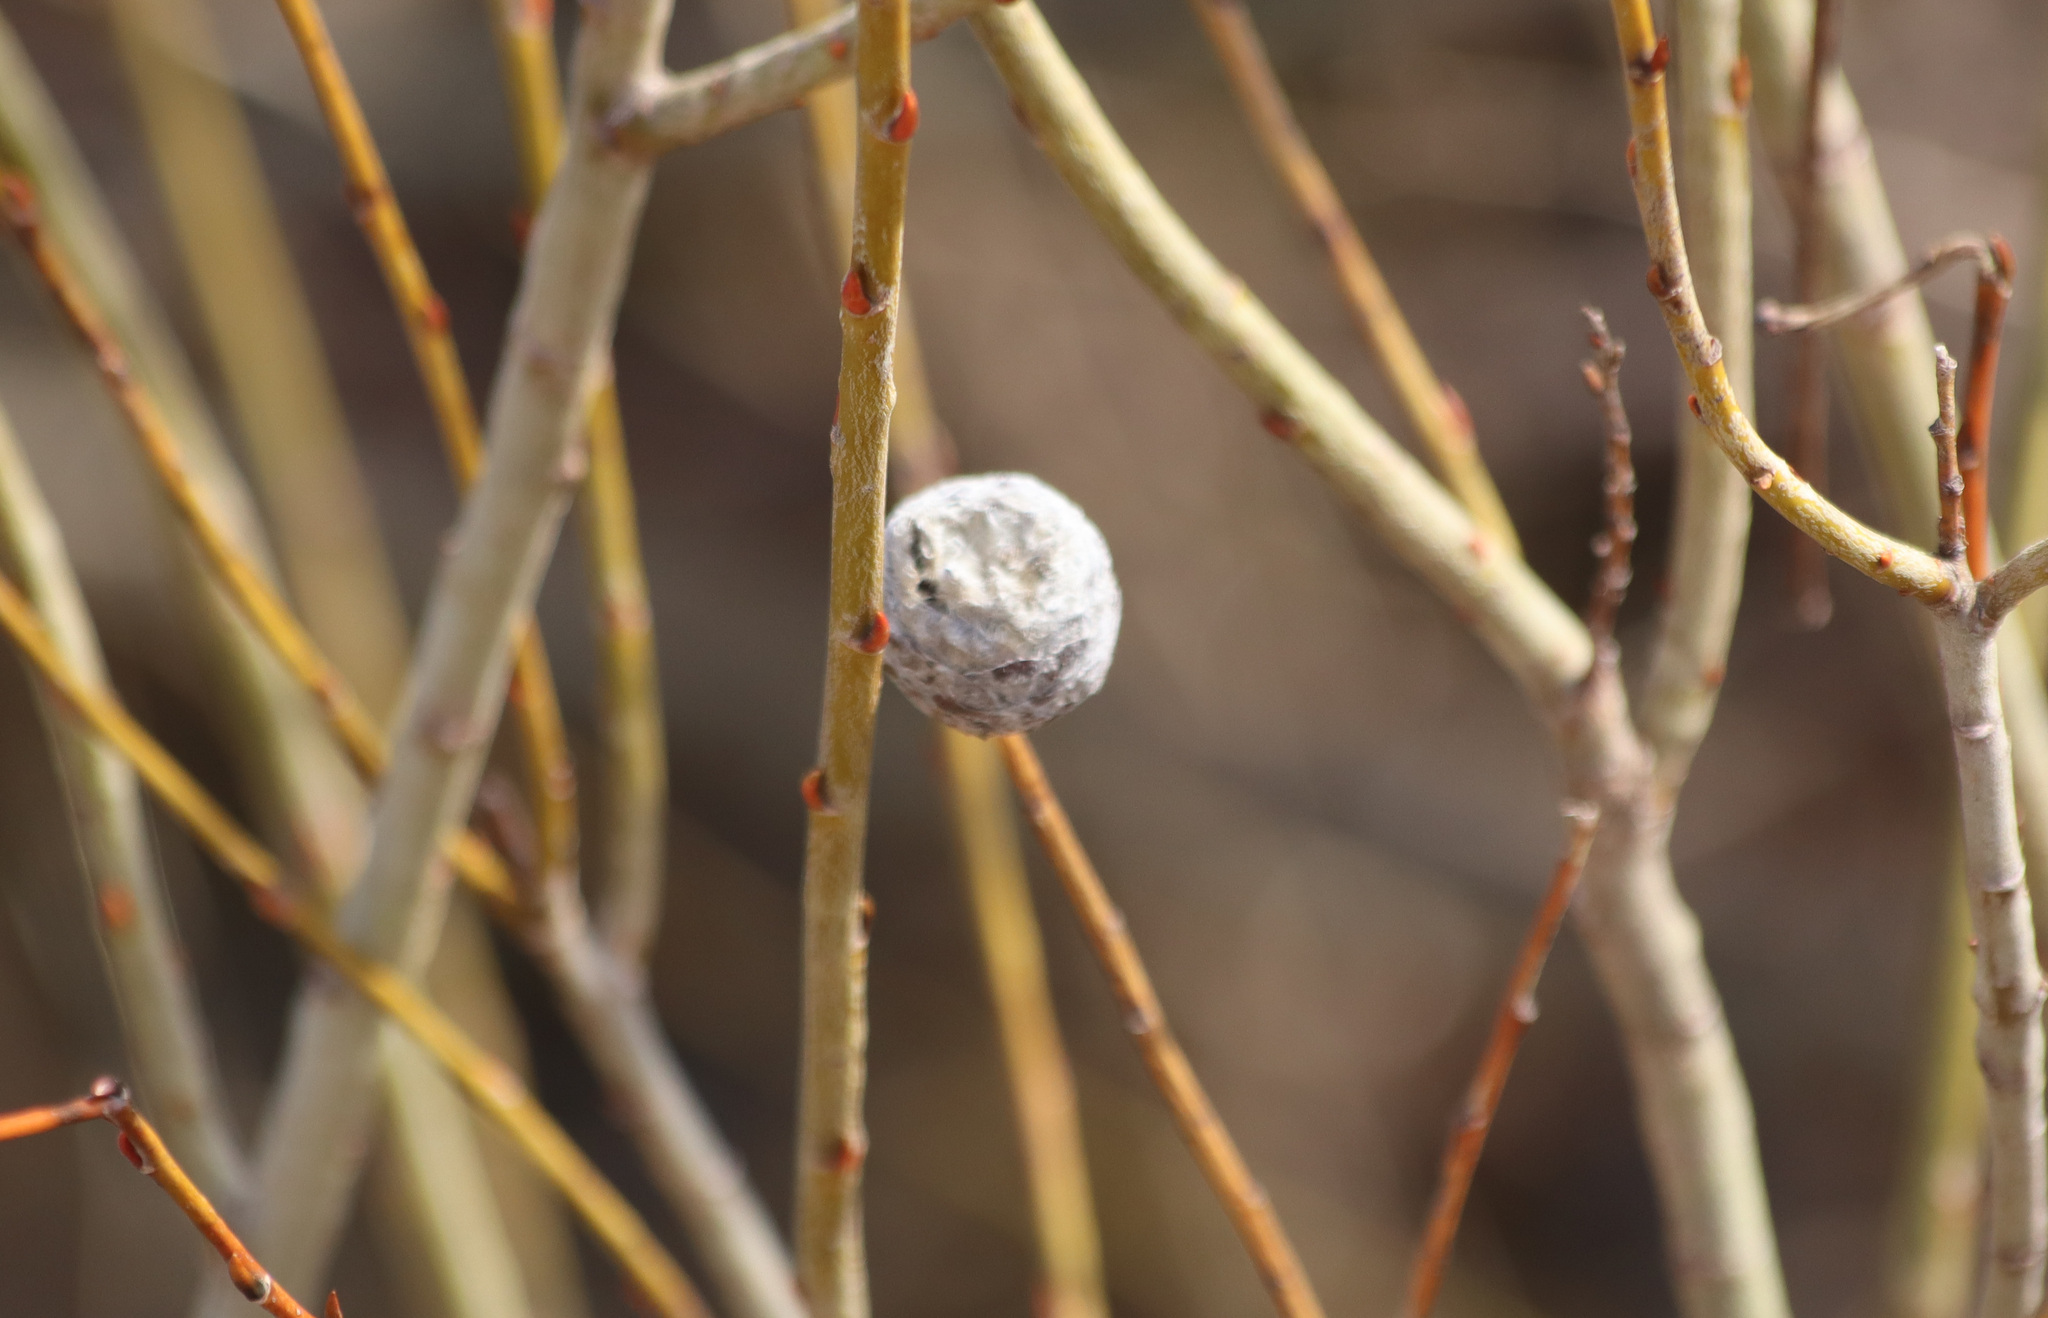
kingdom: Animalia
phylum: Arthropoda
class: Insecta
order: Diptera
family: Cecidomyiidae
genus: Rabdophaga
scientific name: Rabdophaga strobiloides
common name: Willow pinecone gall midge
